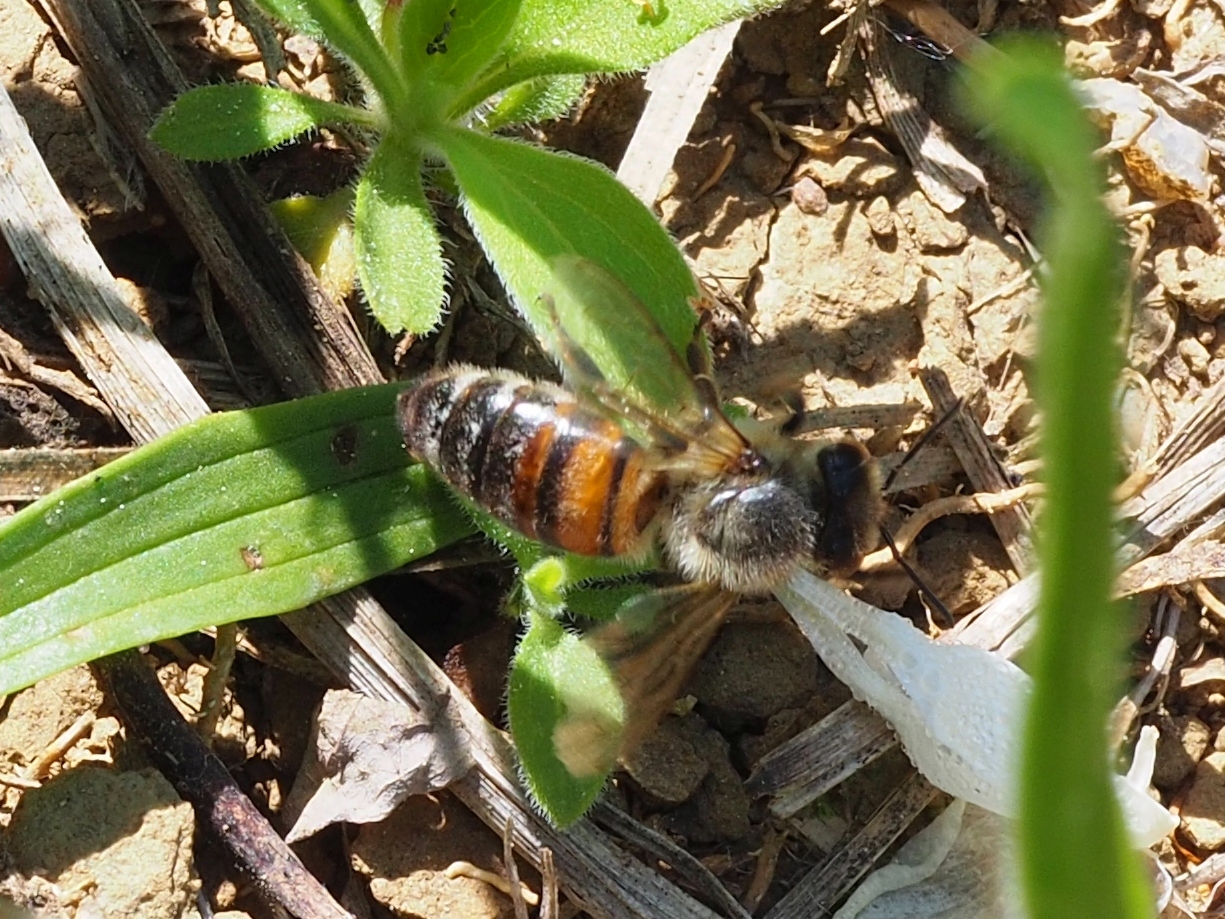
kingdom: Animalia
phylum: Arthropoda
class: Insecta
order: Hymenoptera
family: Apidae
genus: Apis
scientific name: Apis mellifera
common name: Honey bee
